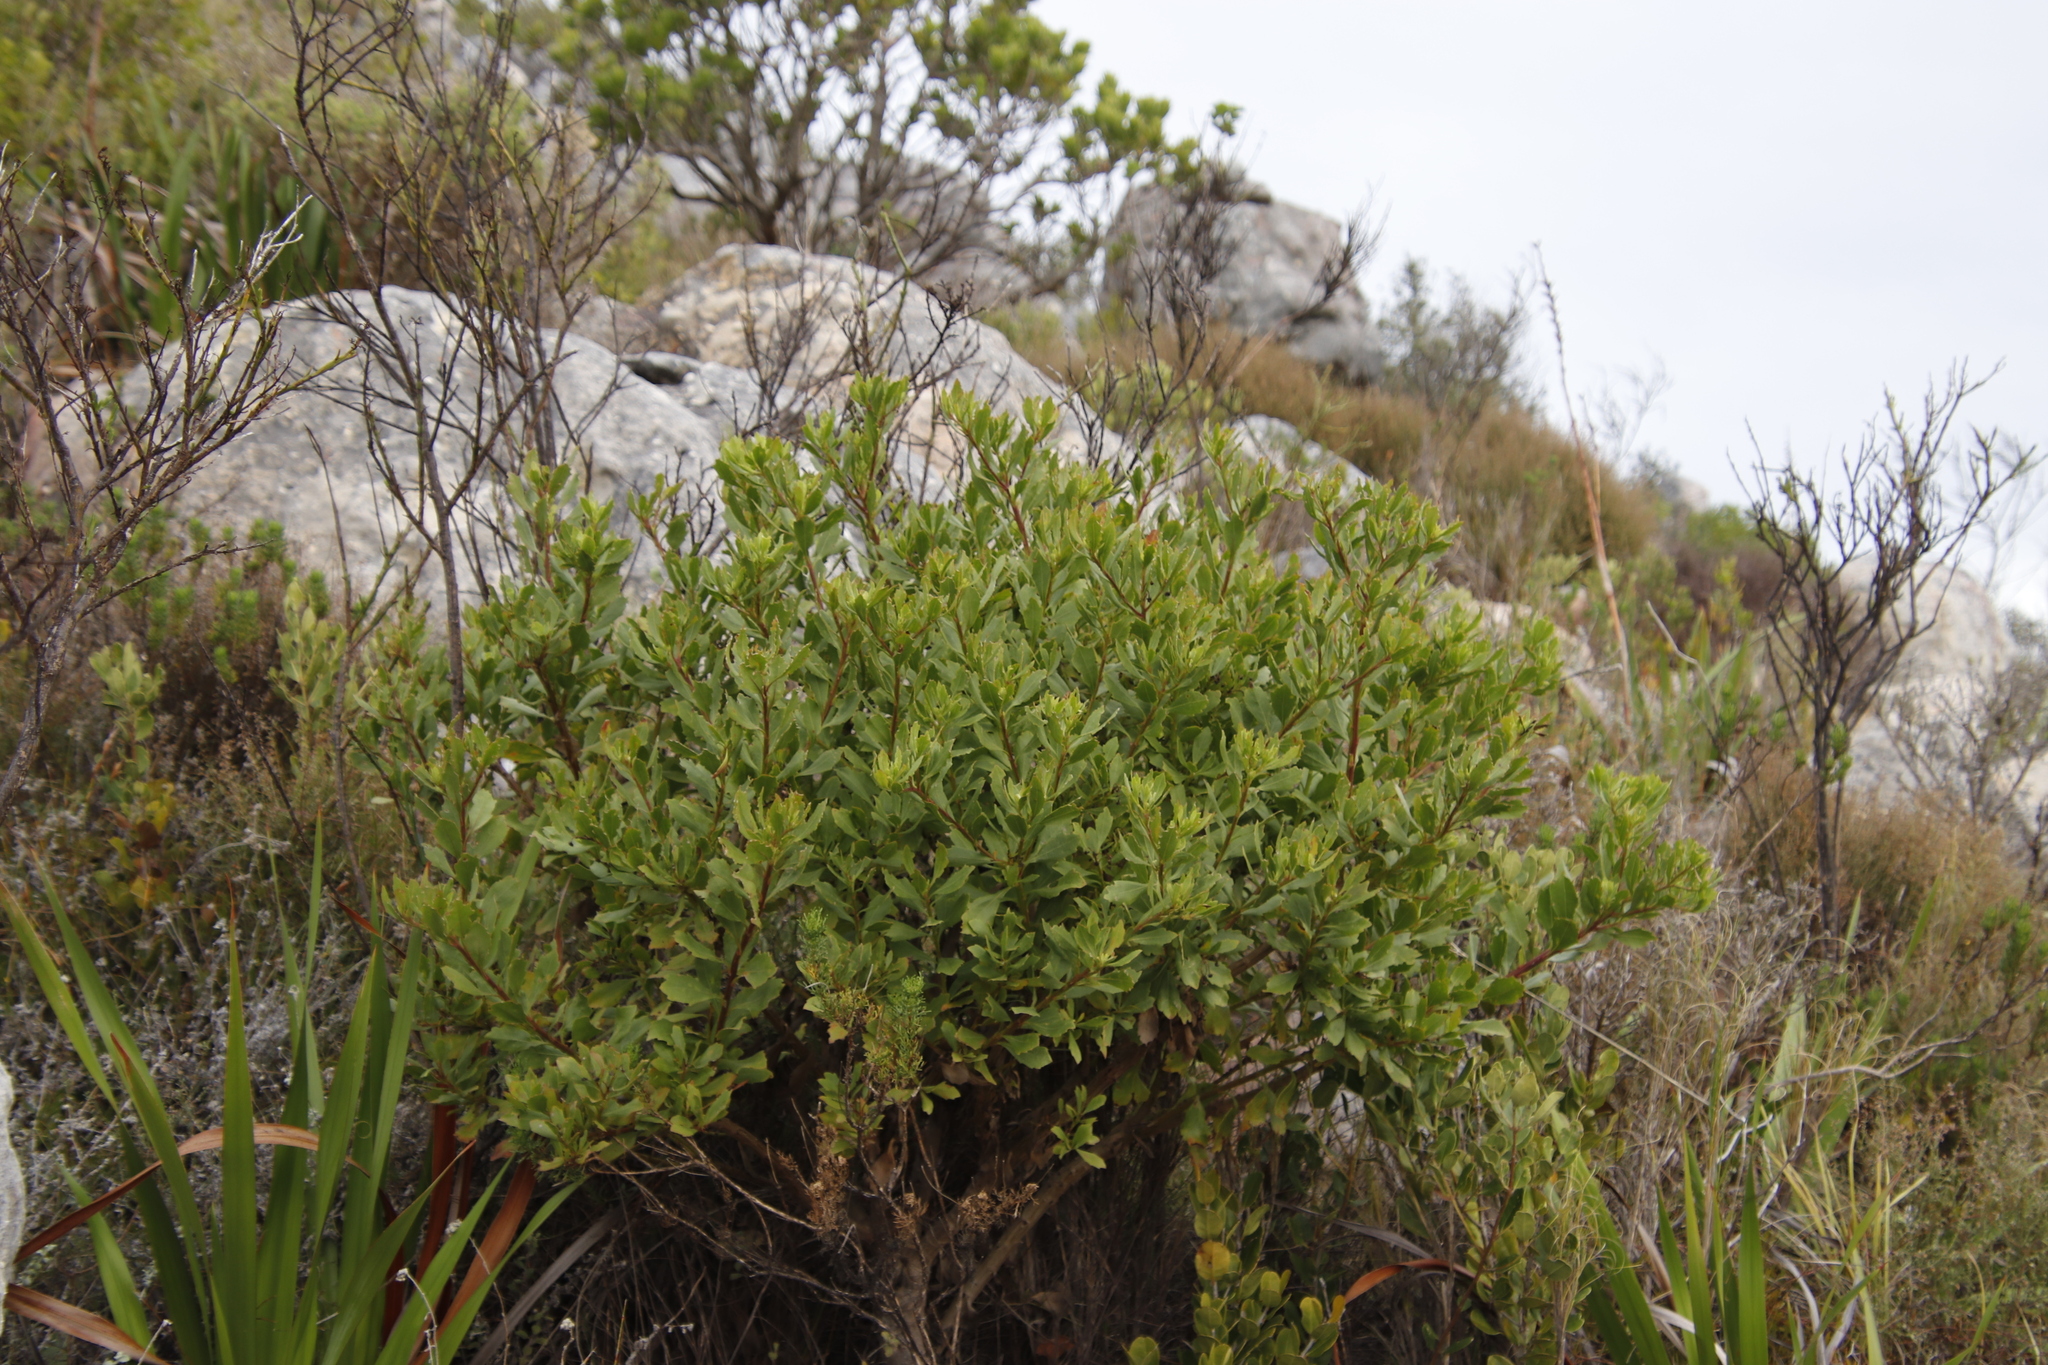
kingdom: Plantae
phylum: Tracheophyta
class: Magnoliopsida
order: Asterales
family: Asteraceae
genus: Osteospermum
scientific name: Osteospermum moniliferum
